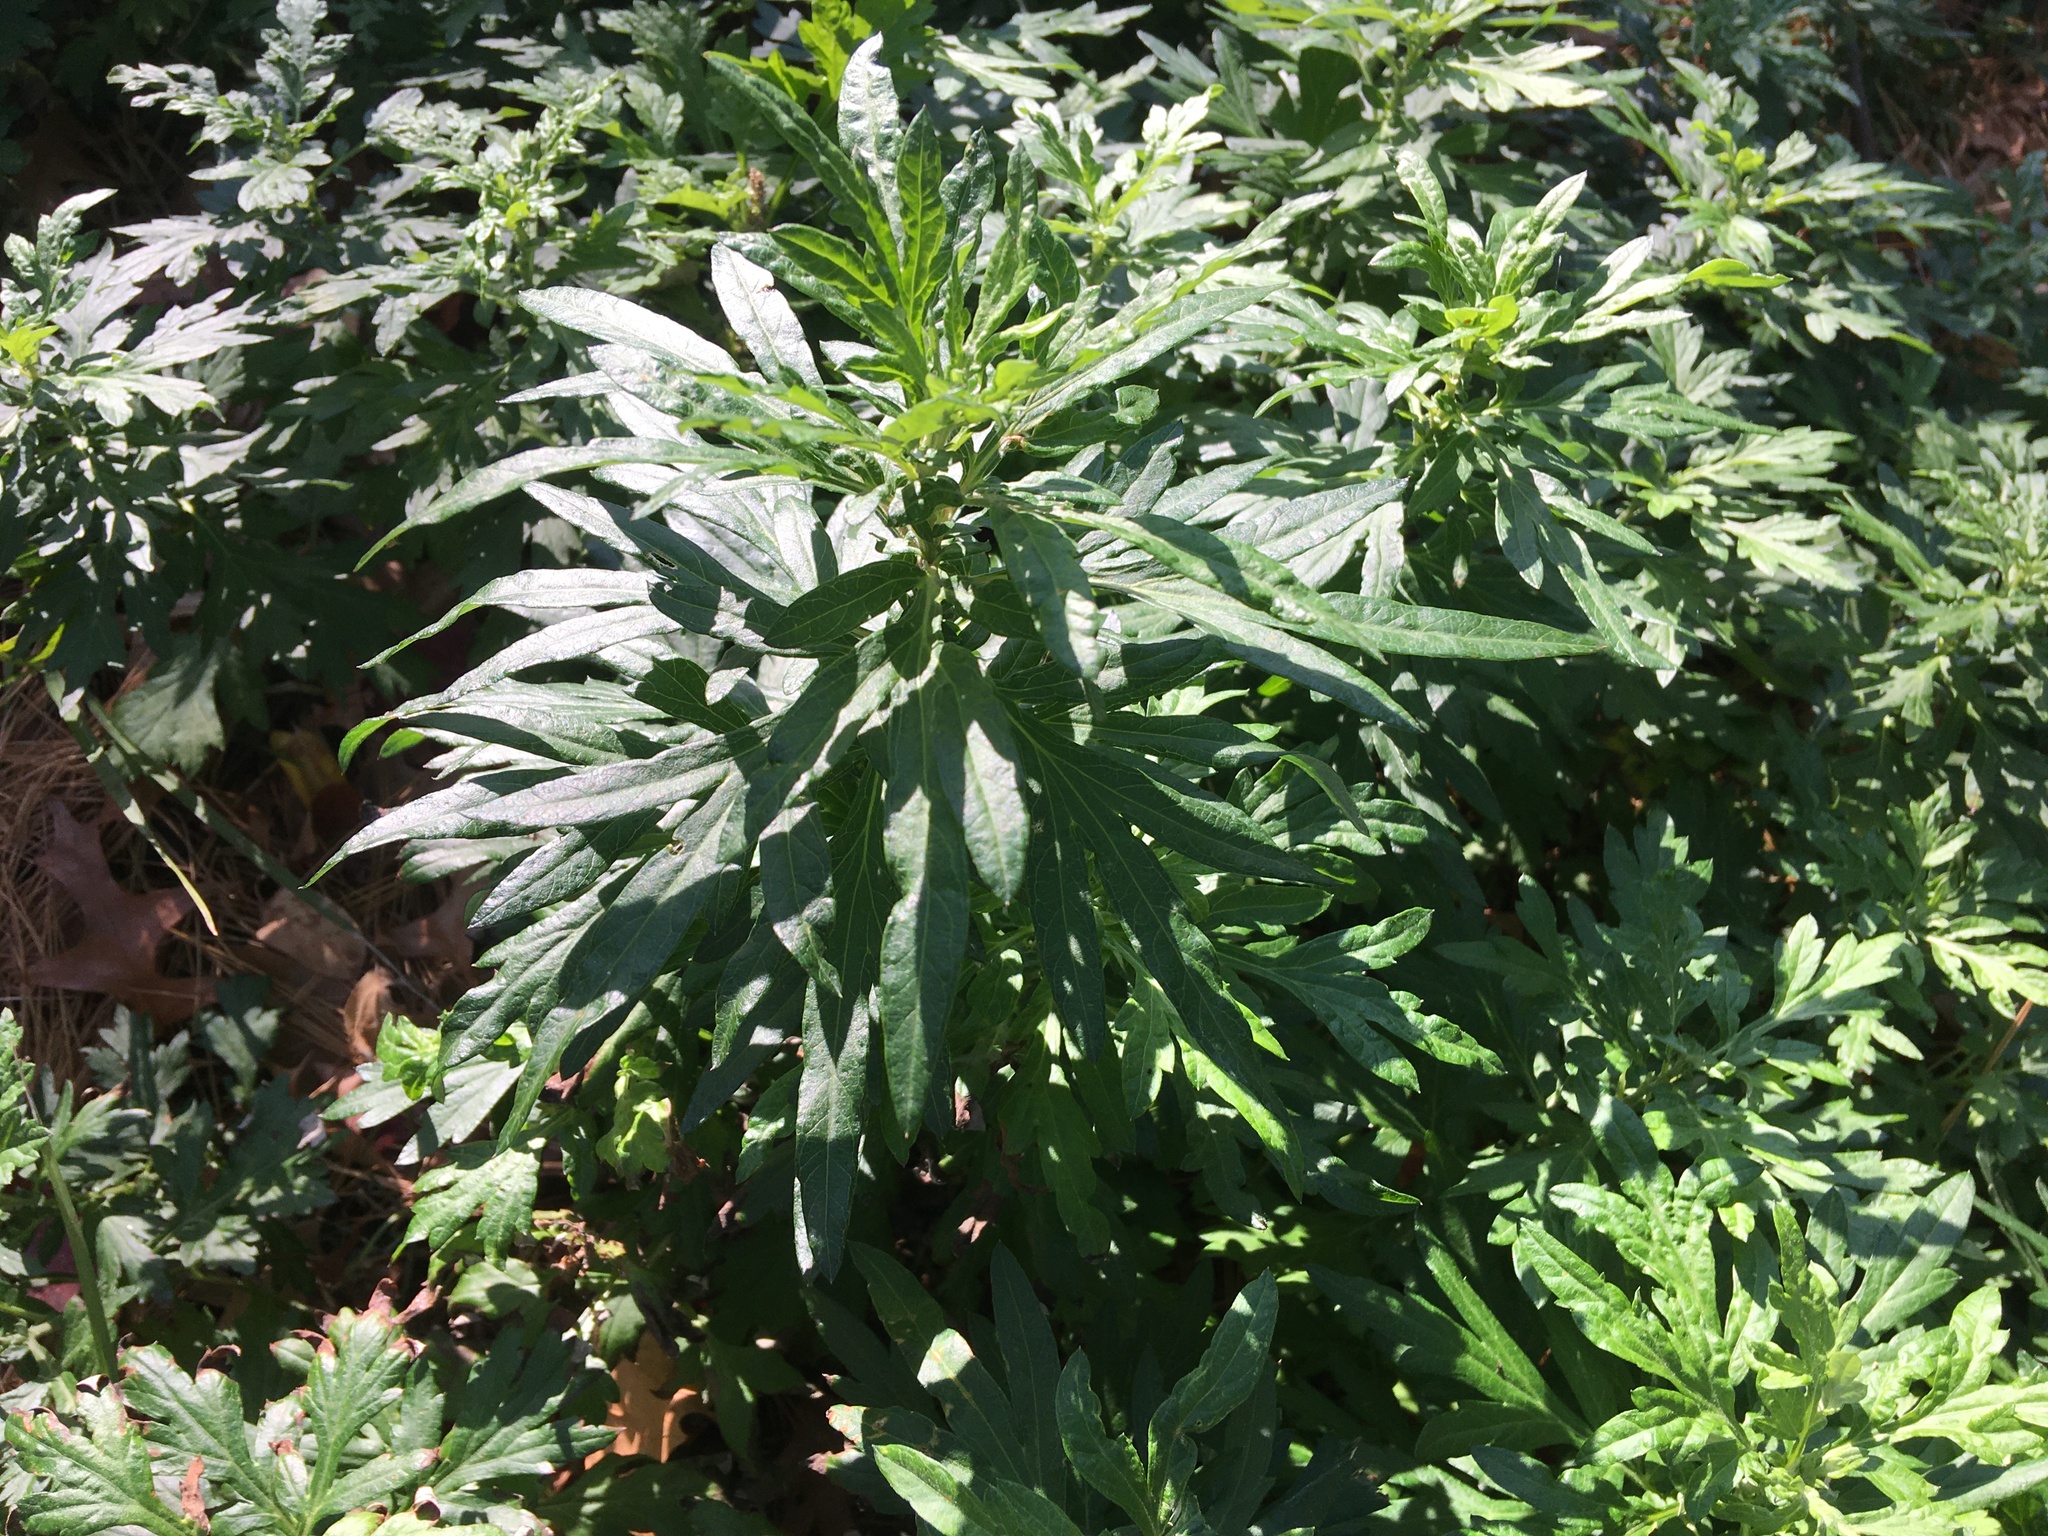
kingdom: Plantae
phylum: Tracheophyta
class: Magnoliopsida
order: Asterales
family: Asteraceae
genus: Artemisia
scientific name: Artemisia vulgaris
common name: Mugwort
